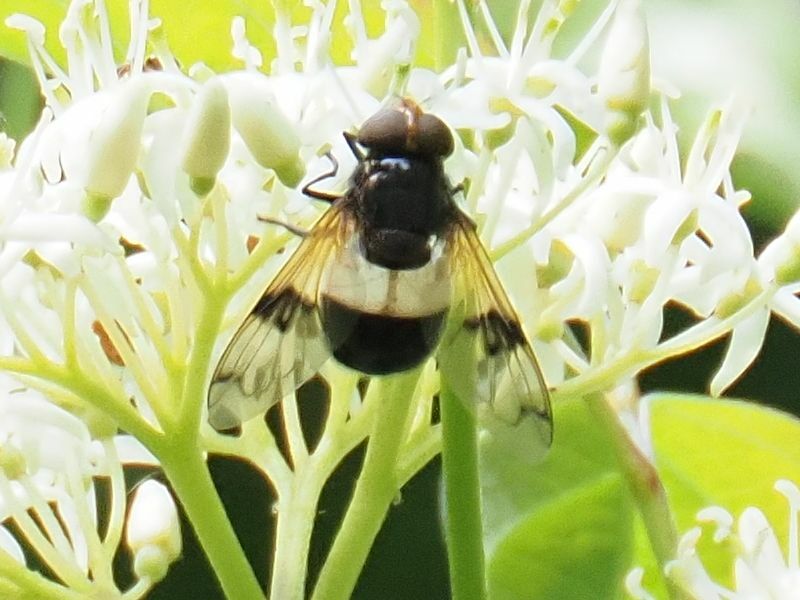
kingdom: Animalia
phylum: Arthropoda
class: Insecta
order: Diptera
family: Syrphidae
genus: Volucella
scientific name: Volucella pellucens
